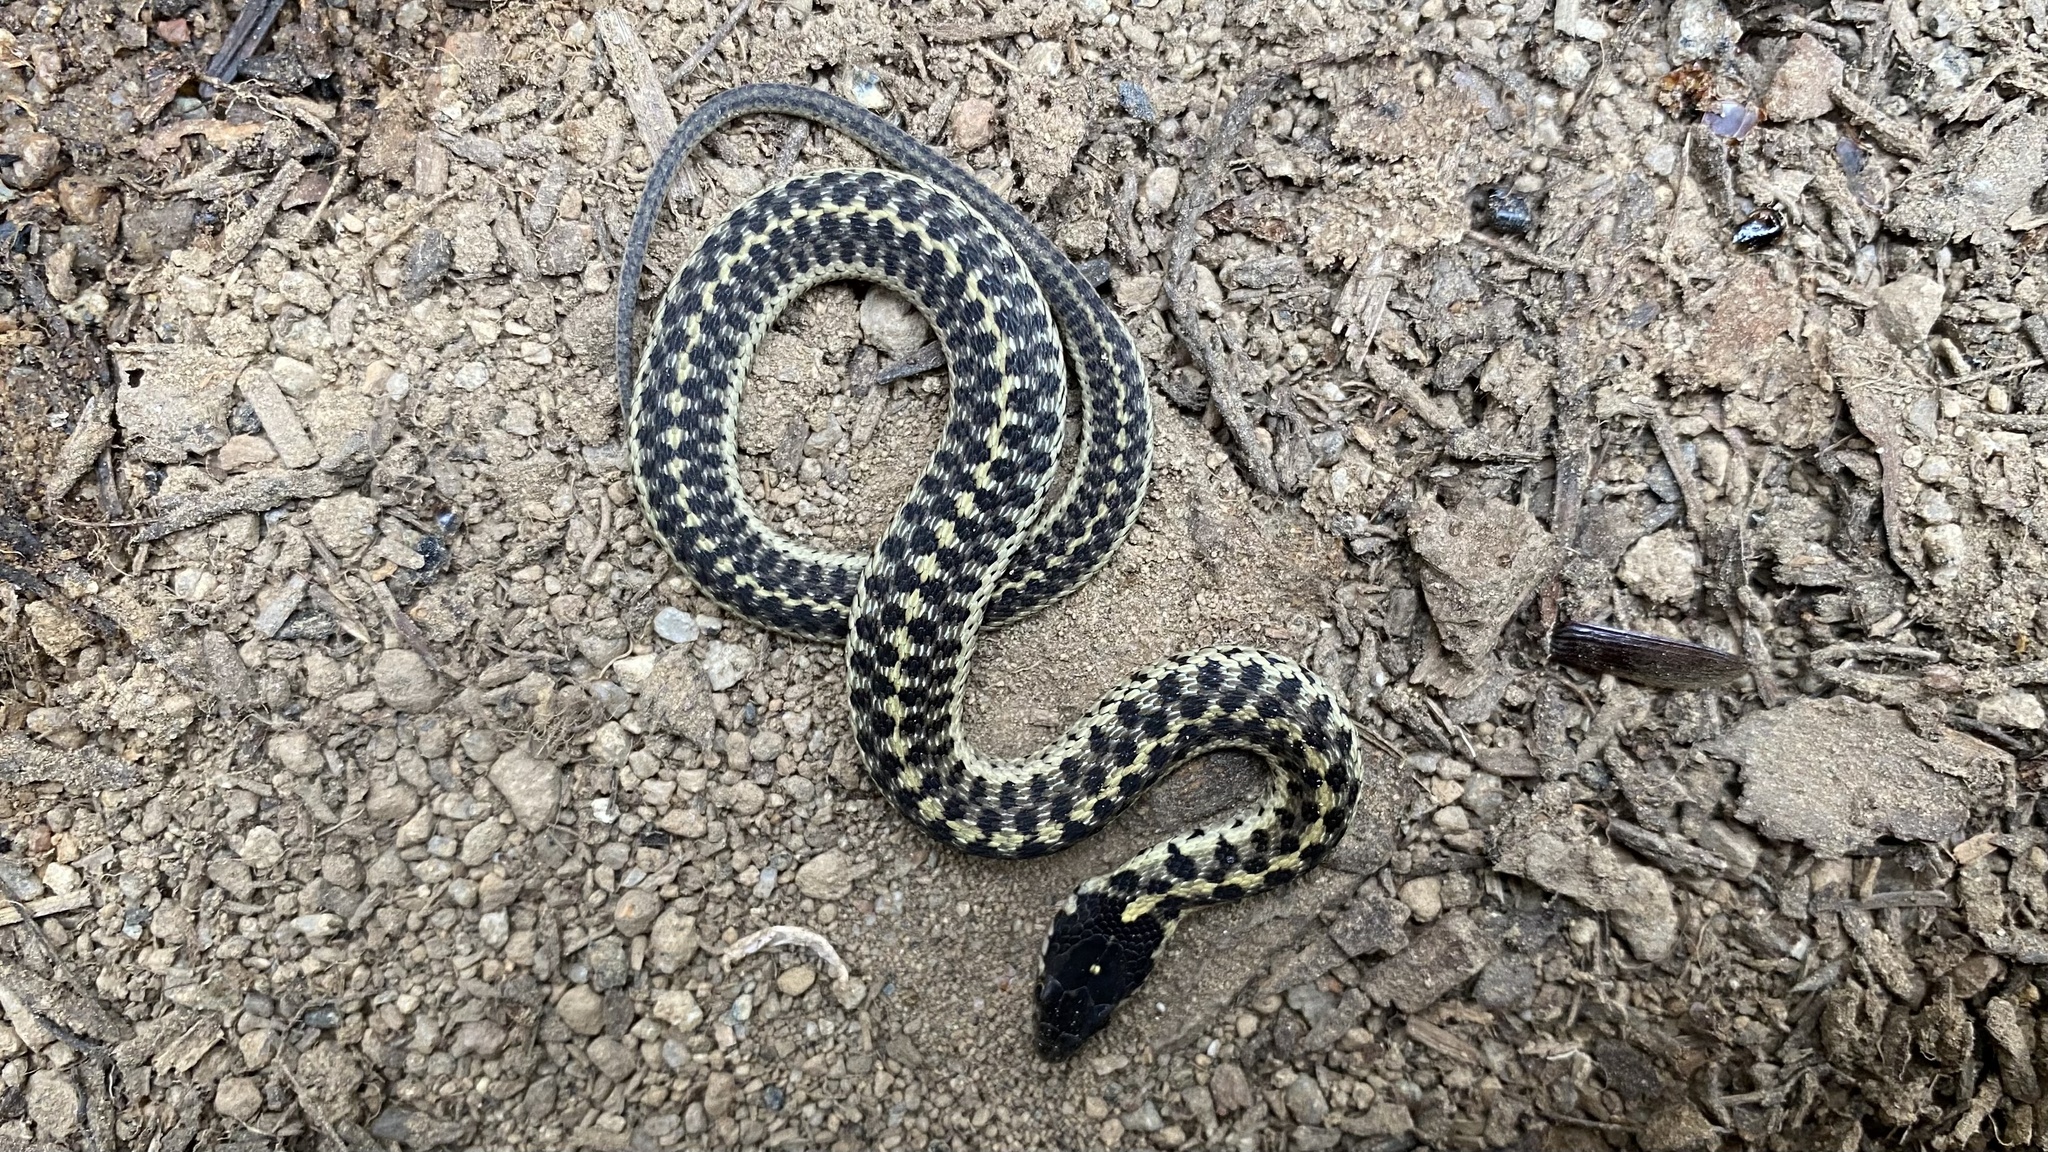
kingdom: Animalia
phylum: Chordata
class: Squamata
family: Colubridae
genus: Thamnophis
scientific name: Thamnophis elegans
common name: Western terrestrial garter snake
